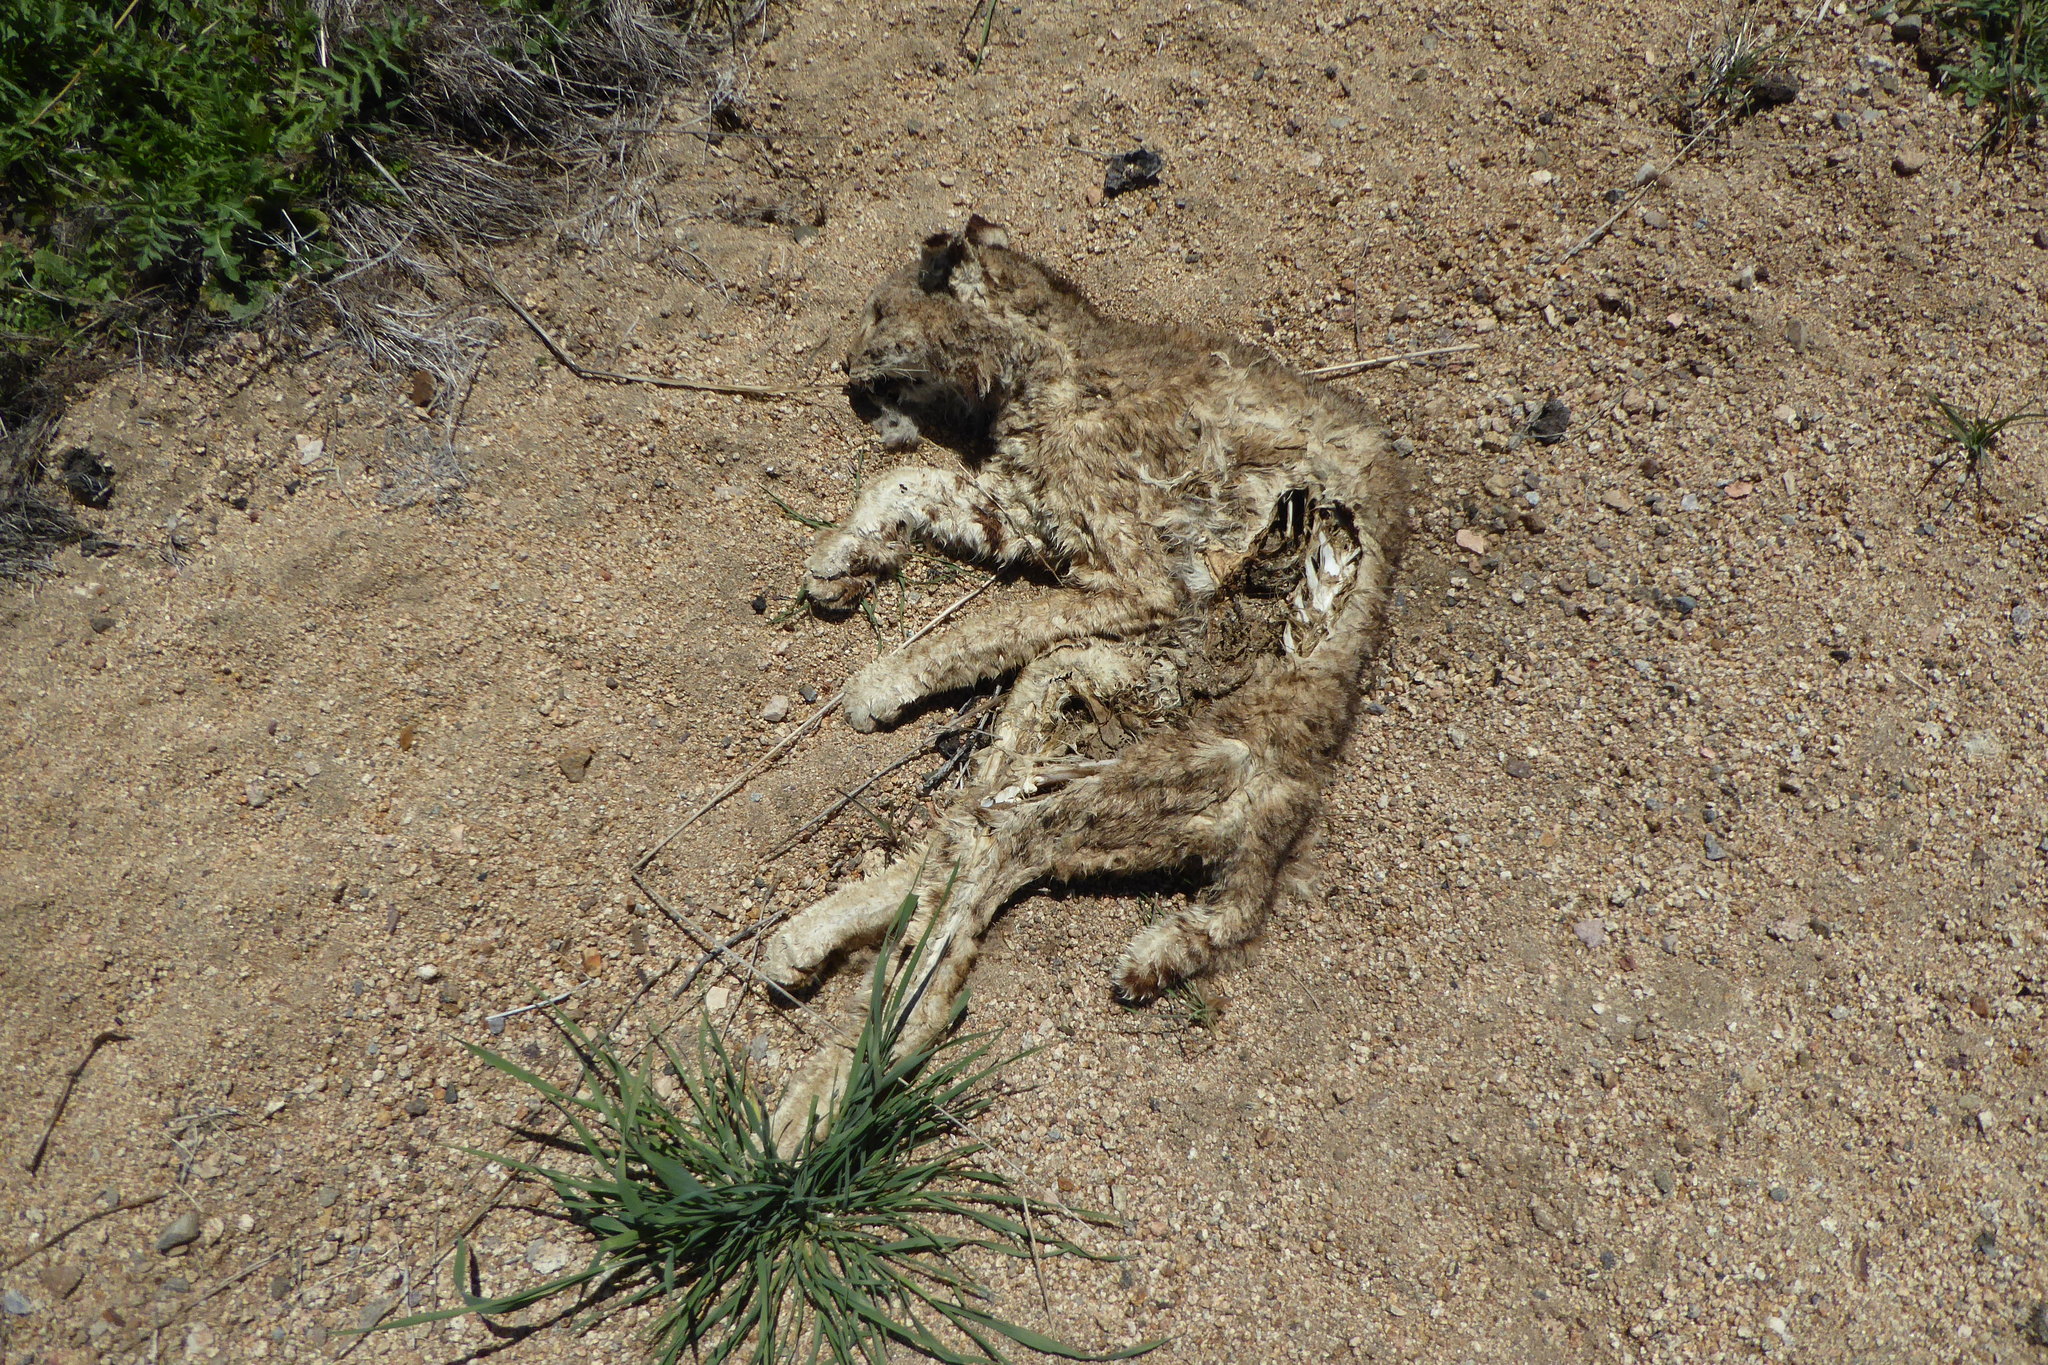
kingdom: Animalia
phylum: Chordata
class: Mammalia
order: Carnivora
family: Felidae
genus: Lynx
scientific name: Lynx rufus
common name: Bobcat
